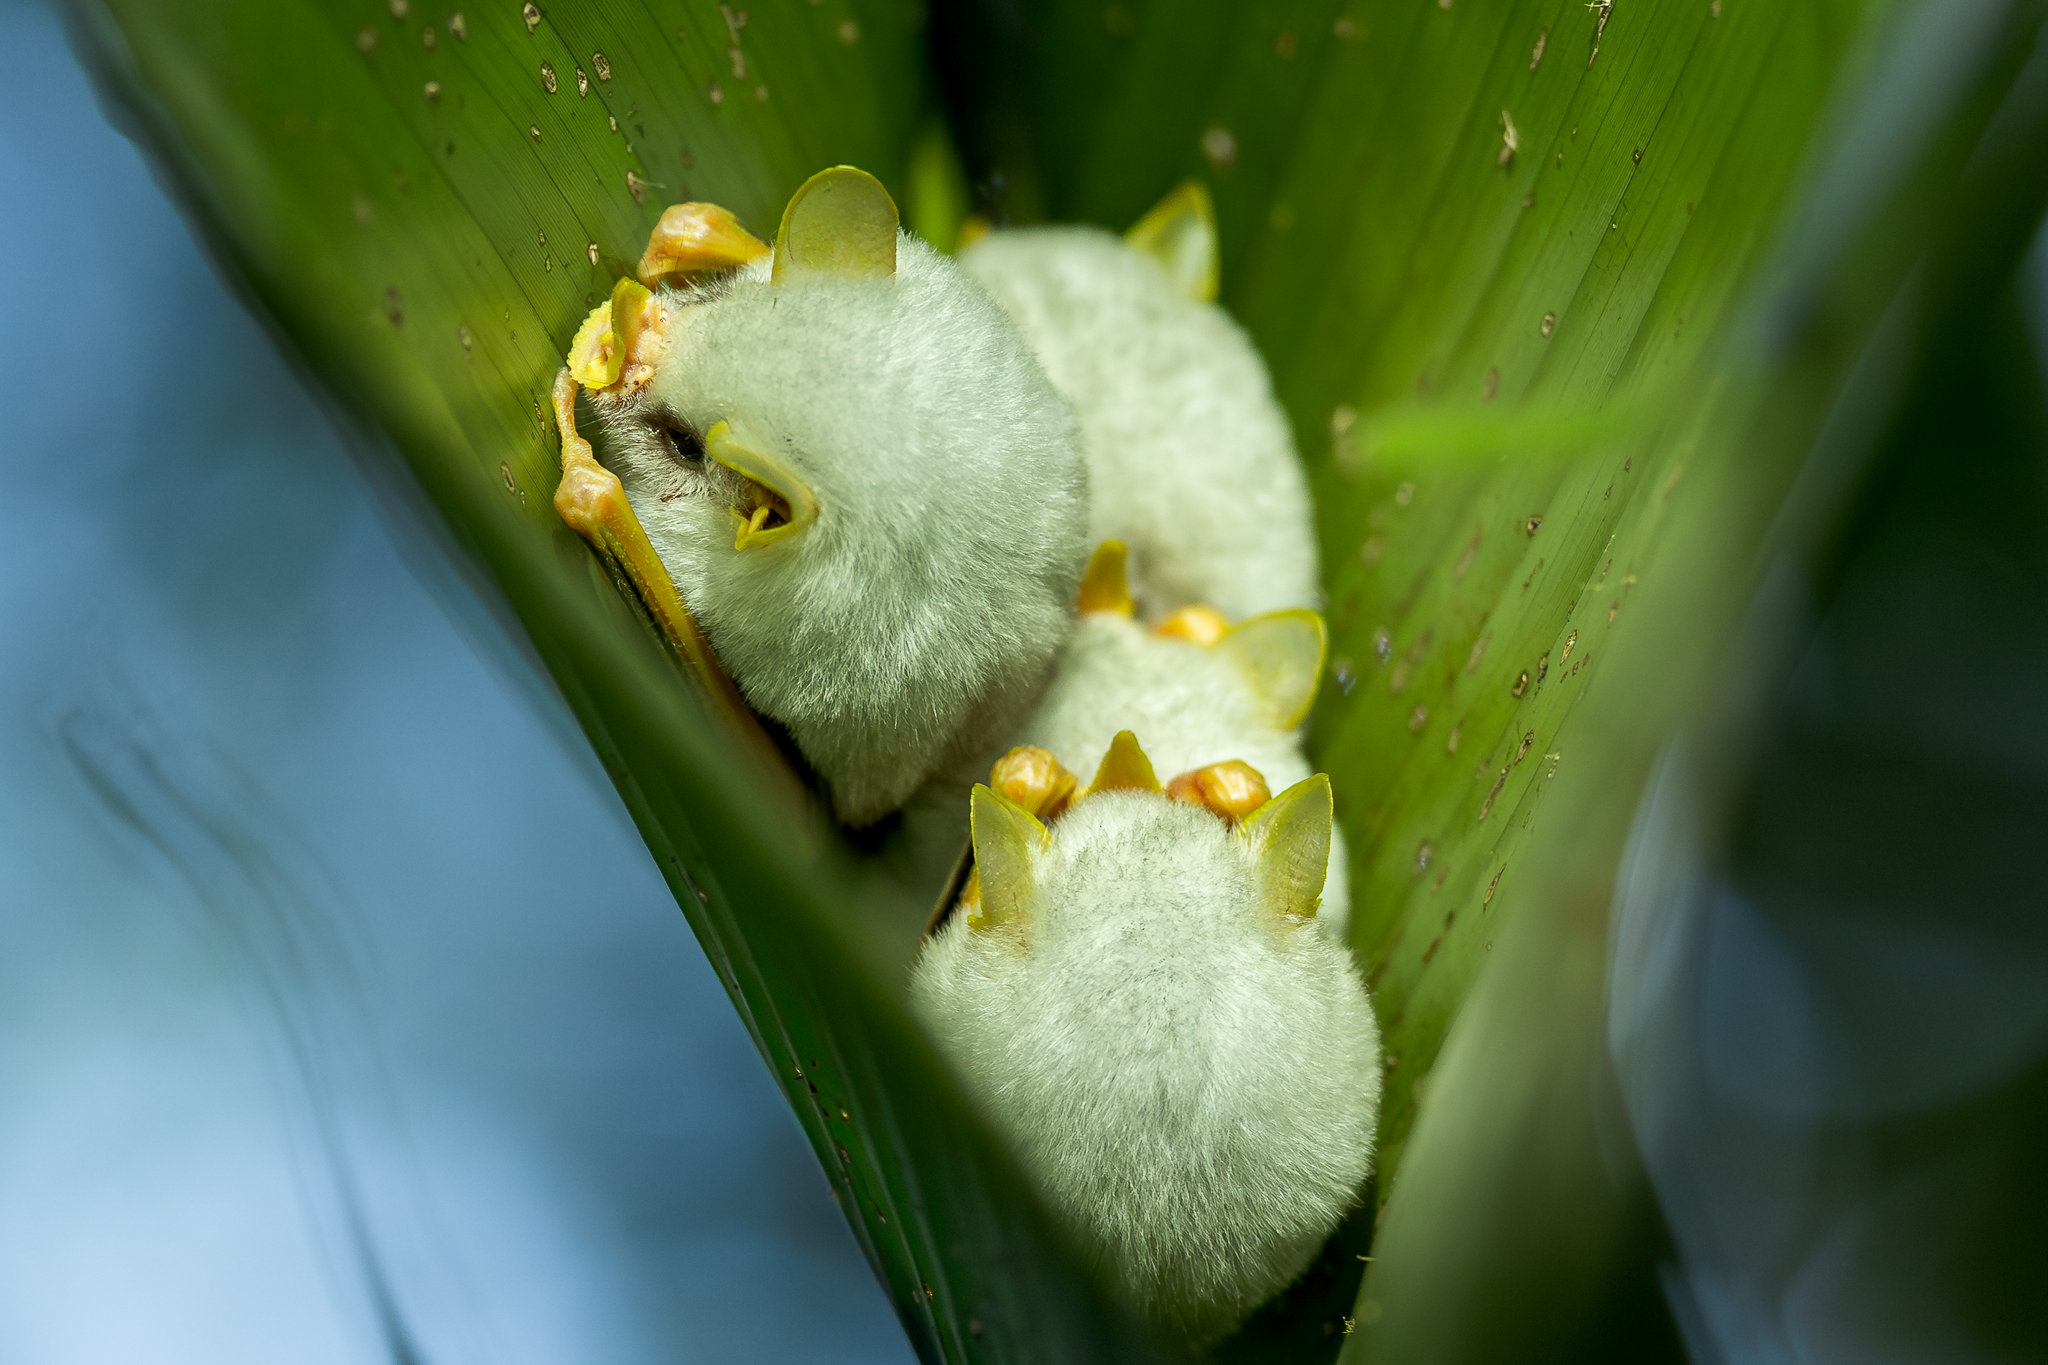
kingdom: Animalia
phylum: Chordata
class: Mammalia
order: Chiroptera
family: Phyllostomidae
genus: Ectophylla
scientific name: Ectophylla alba
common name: Honduran white bat
